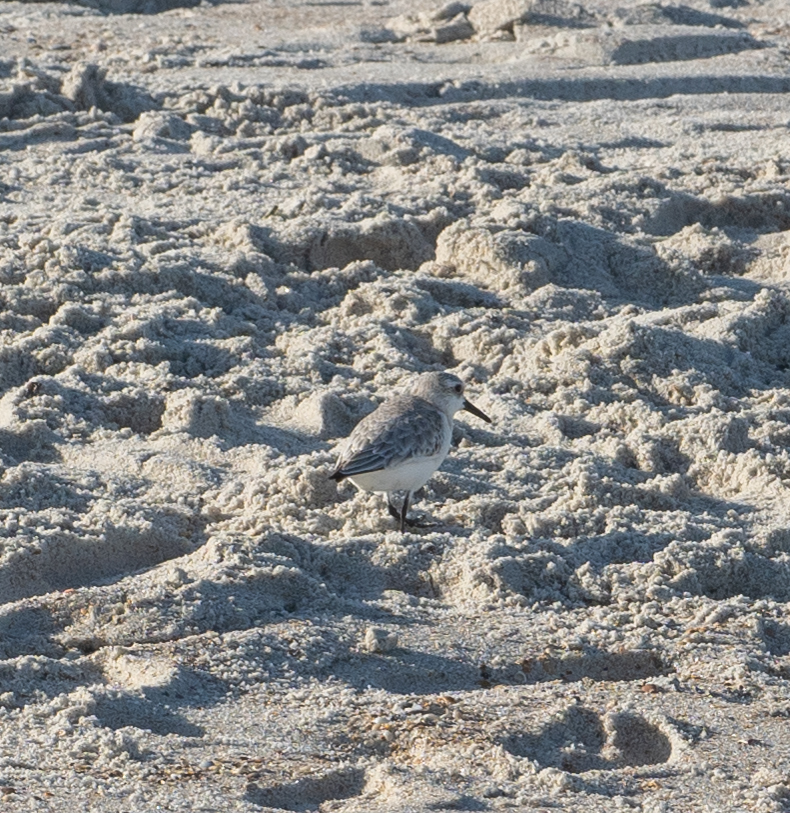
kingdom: Animalia
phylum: Chordata
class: Aves
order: Charadriiformes
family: Scolopacidae
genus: Calidris
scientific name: Calidris alba
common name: Sanderling
